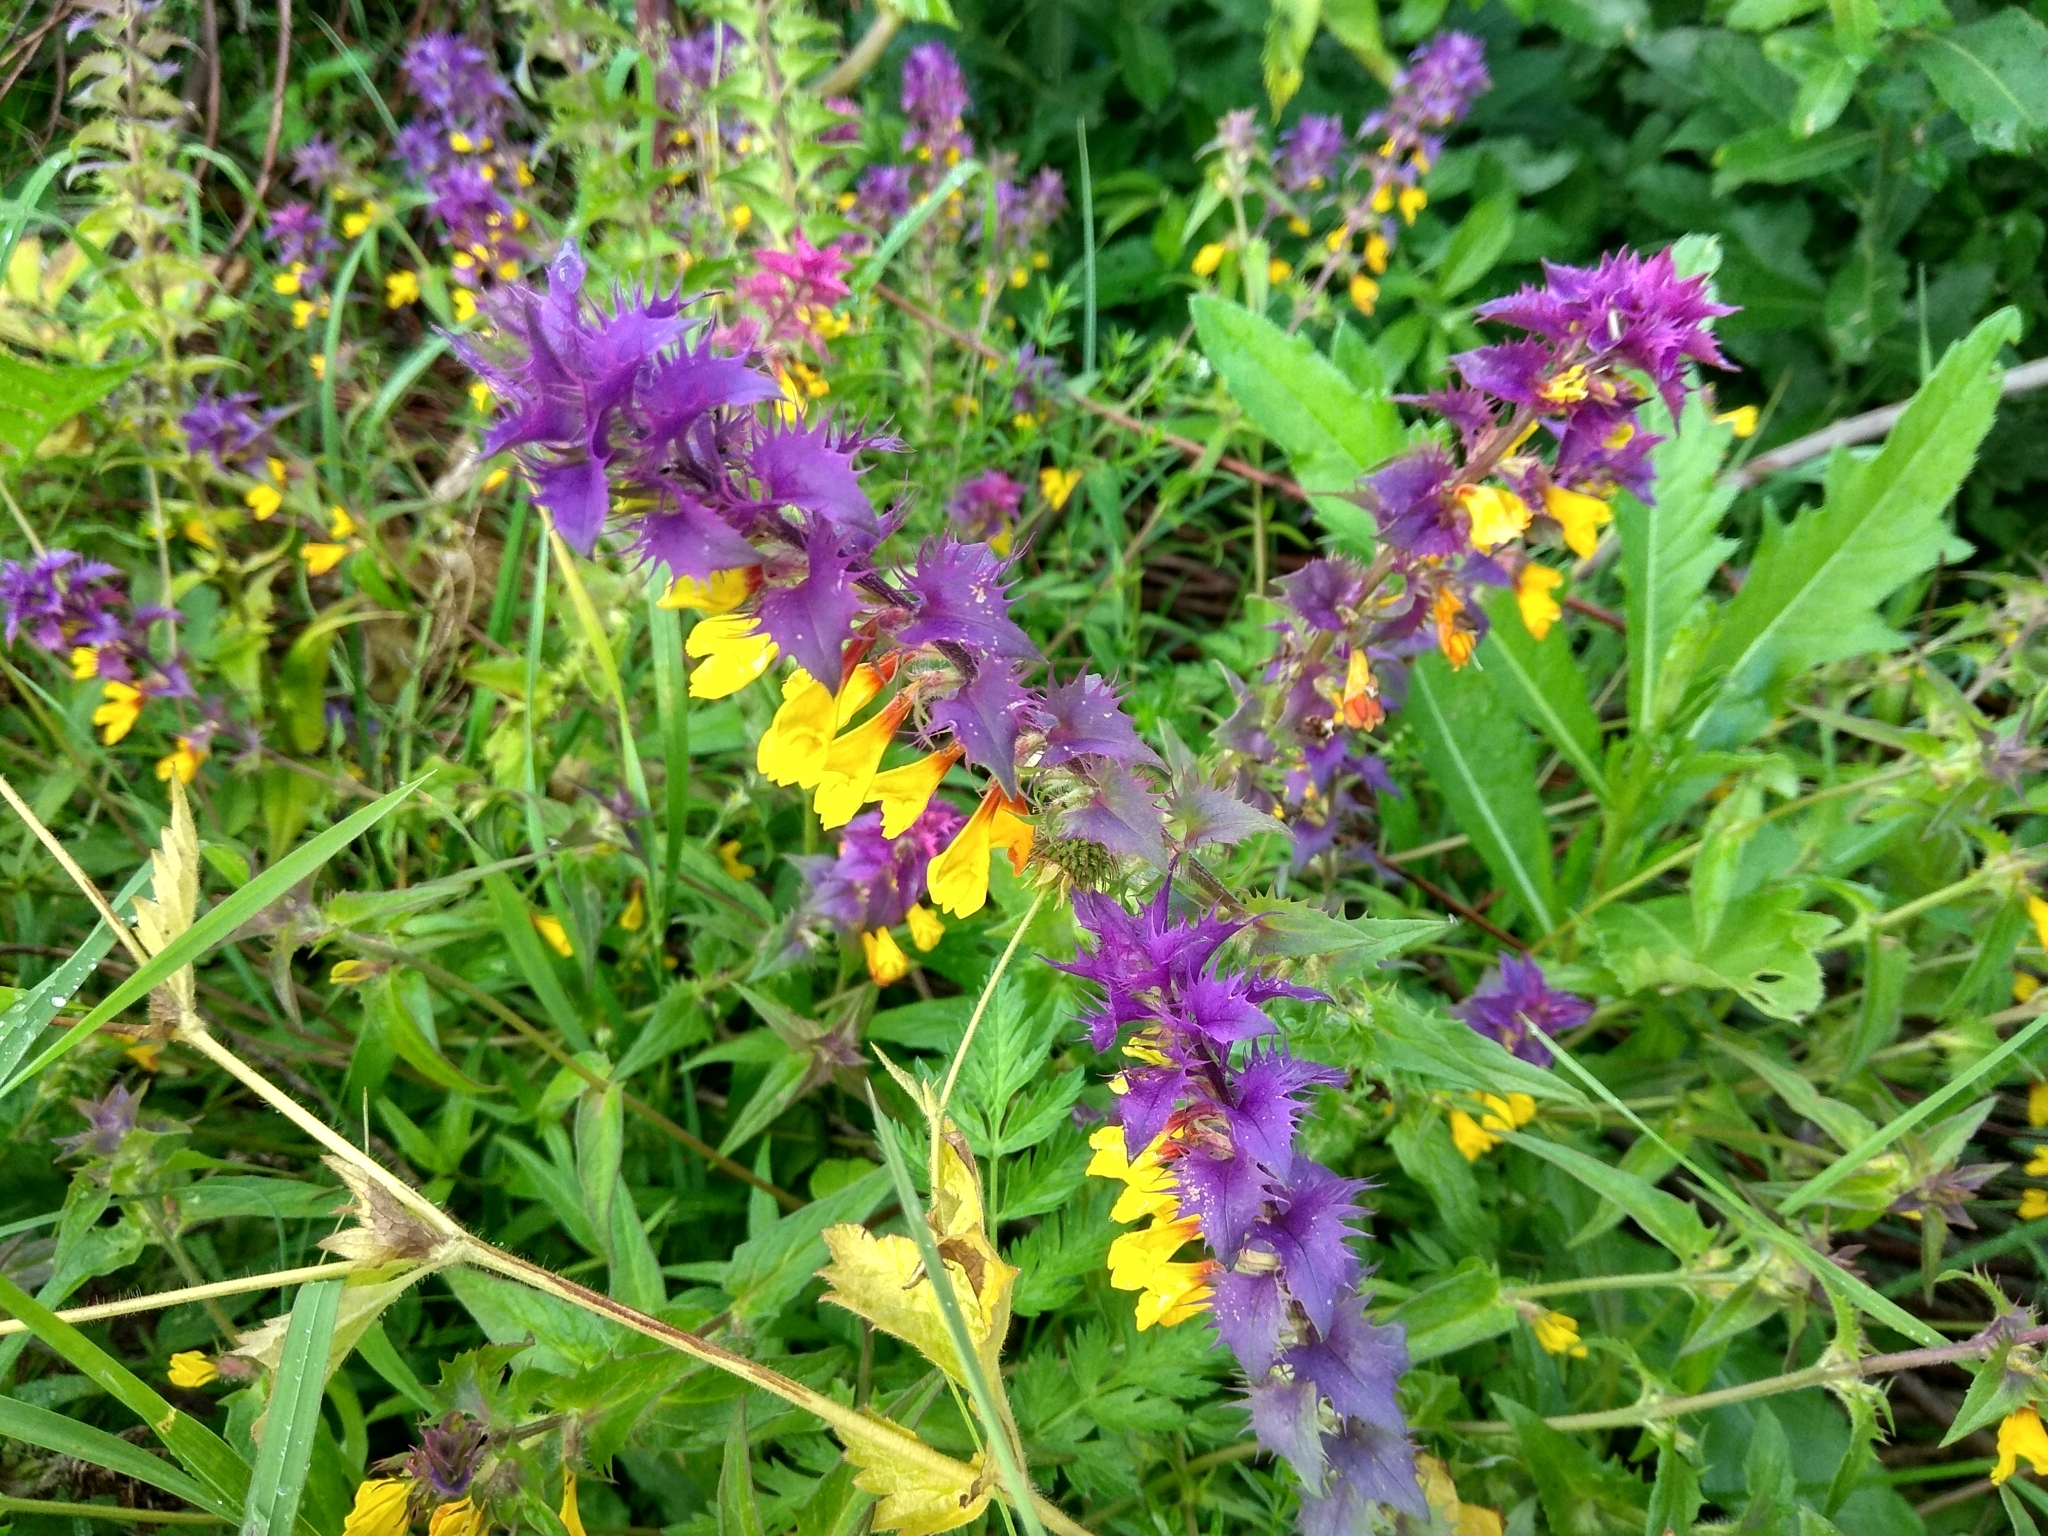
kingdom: Plantae
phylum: Tracheophyta
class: Magnoliopsida
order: Lamiales
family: Orobanchaceae
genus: Melampyrum
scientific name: Melampyrum nemorosum
